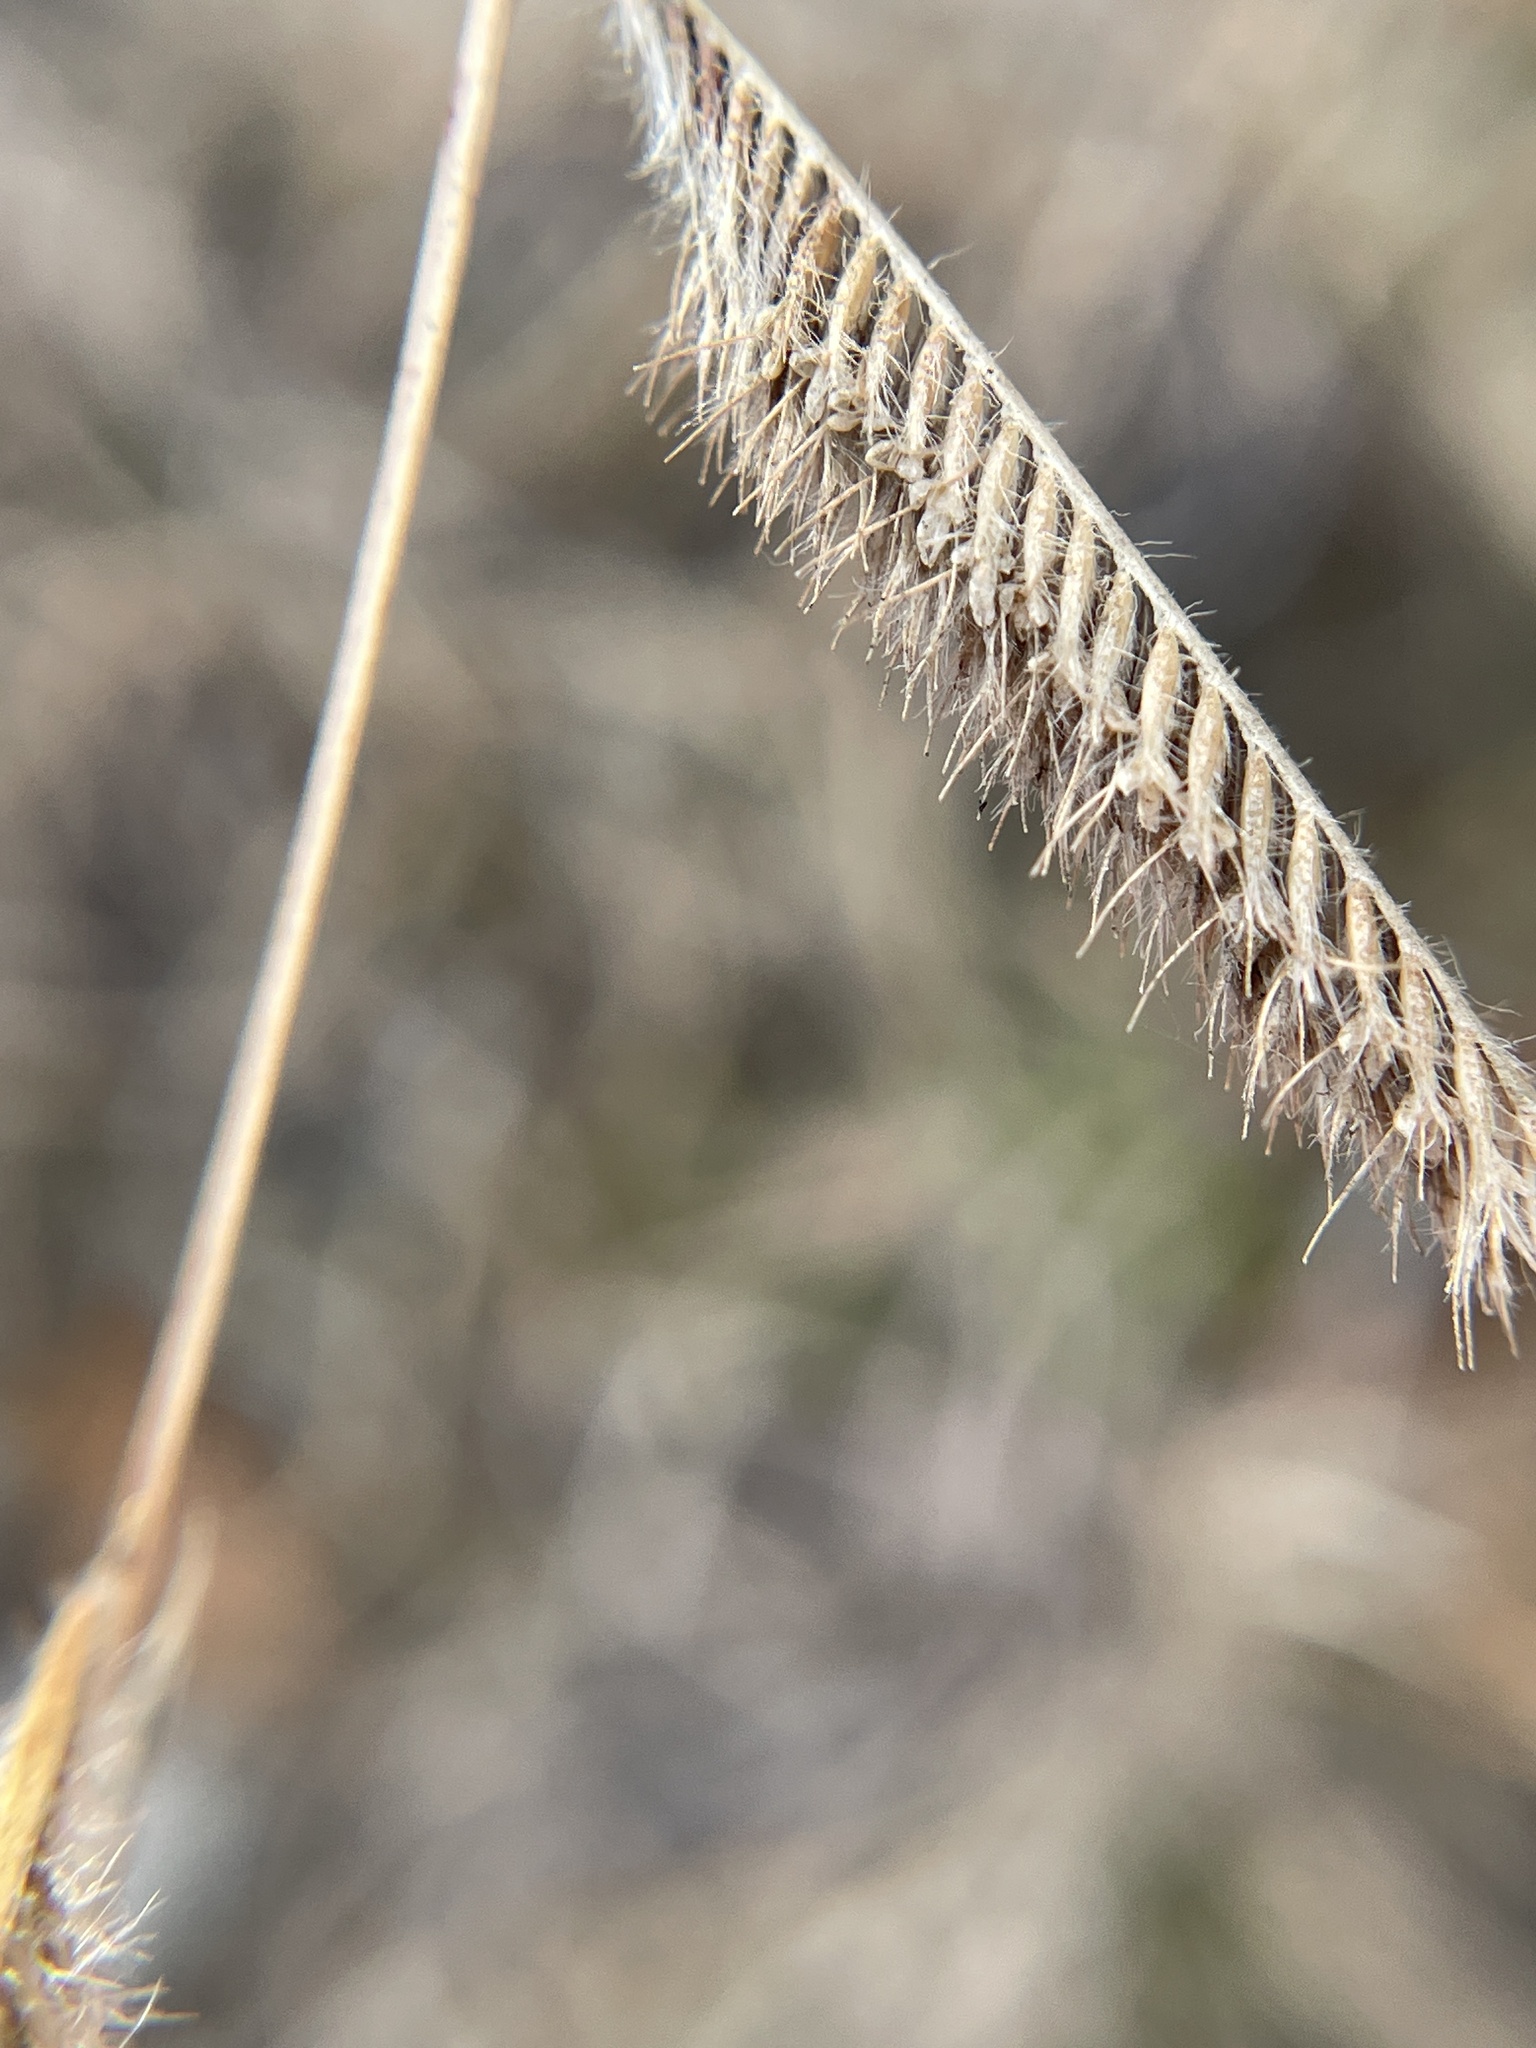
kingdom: Plantae
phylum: Tracheophyta
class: Liliopsida
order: Poales
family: Poaceae
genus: Bouteloua
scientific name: Bouteloua hirsuta
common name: Hairy grama
